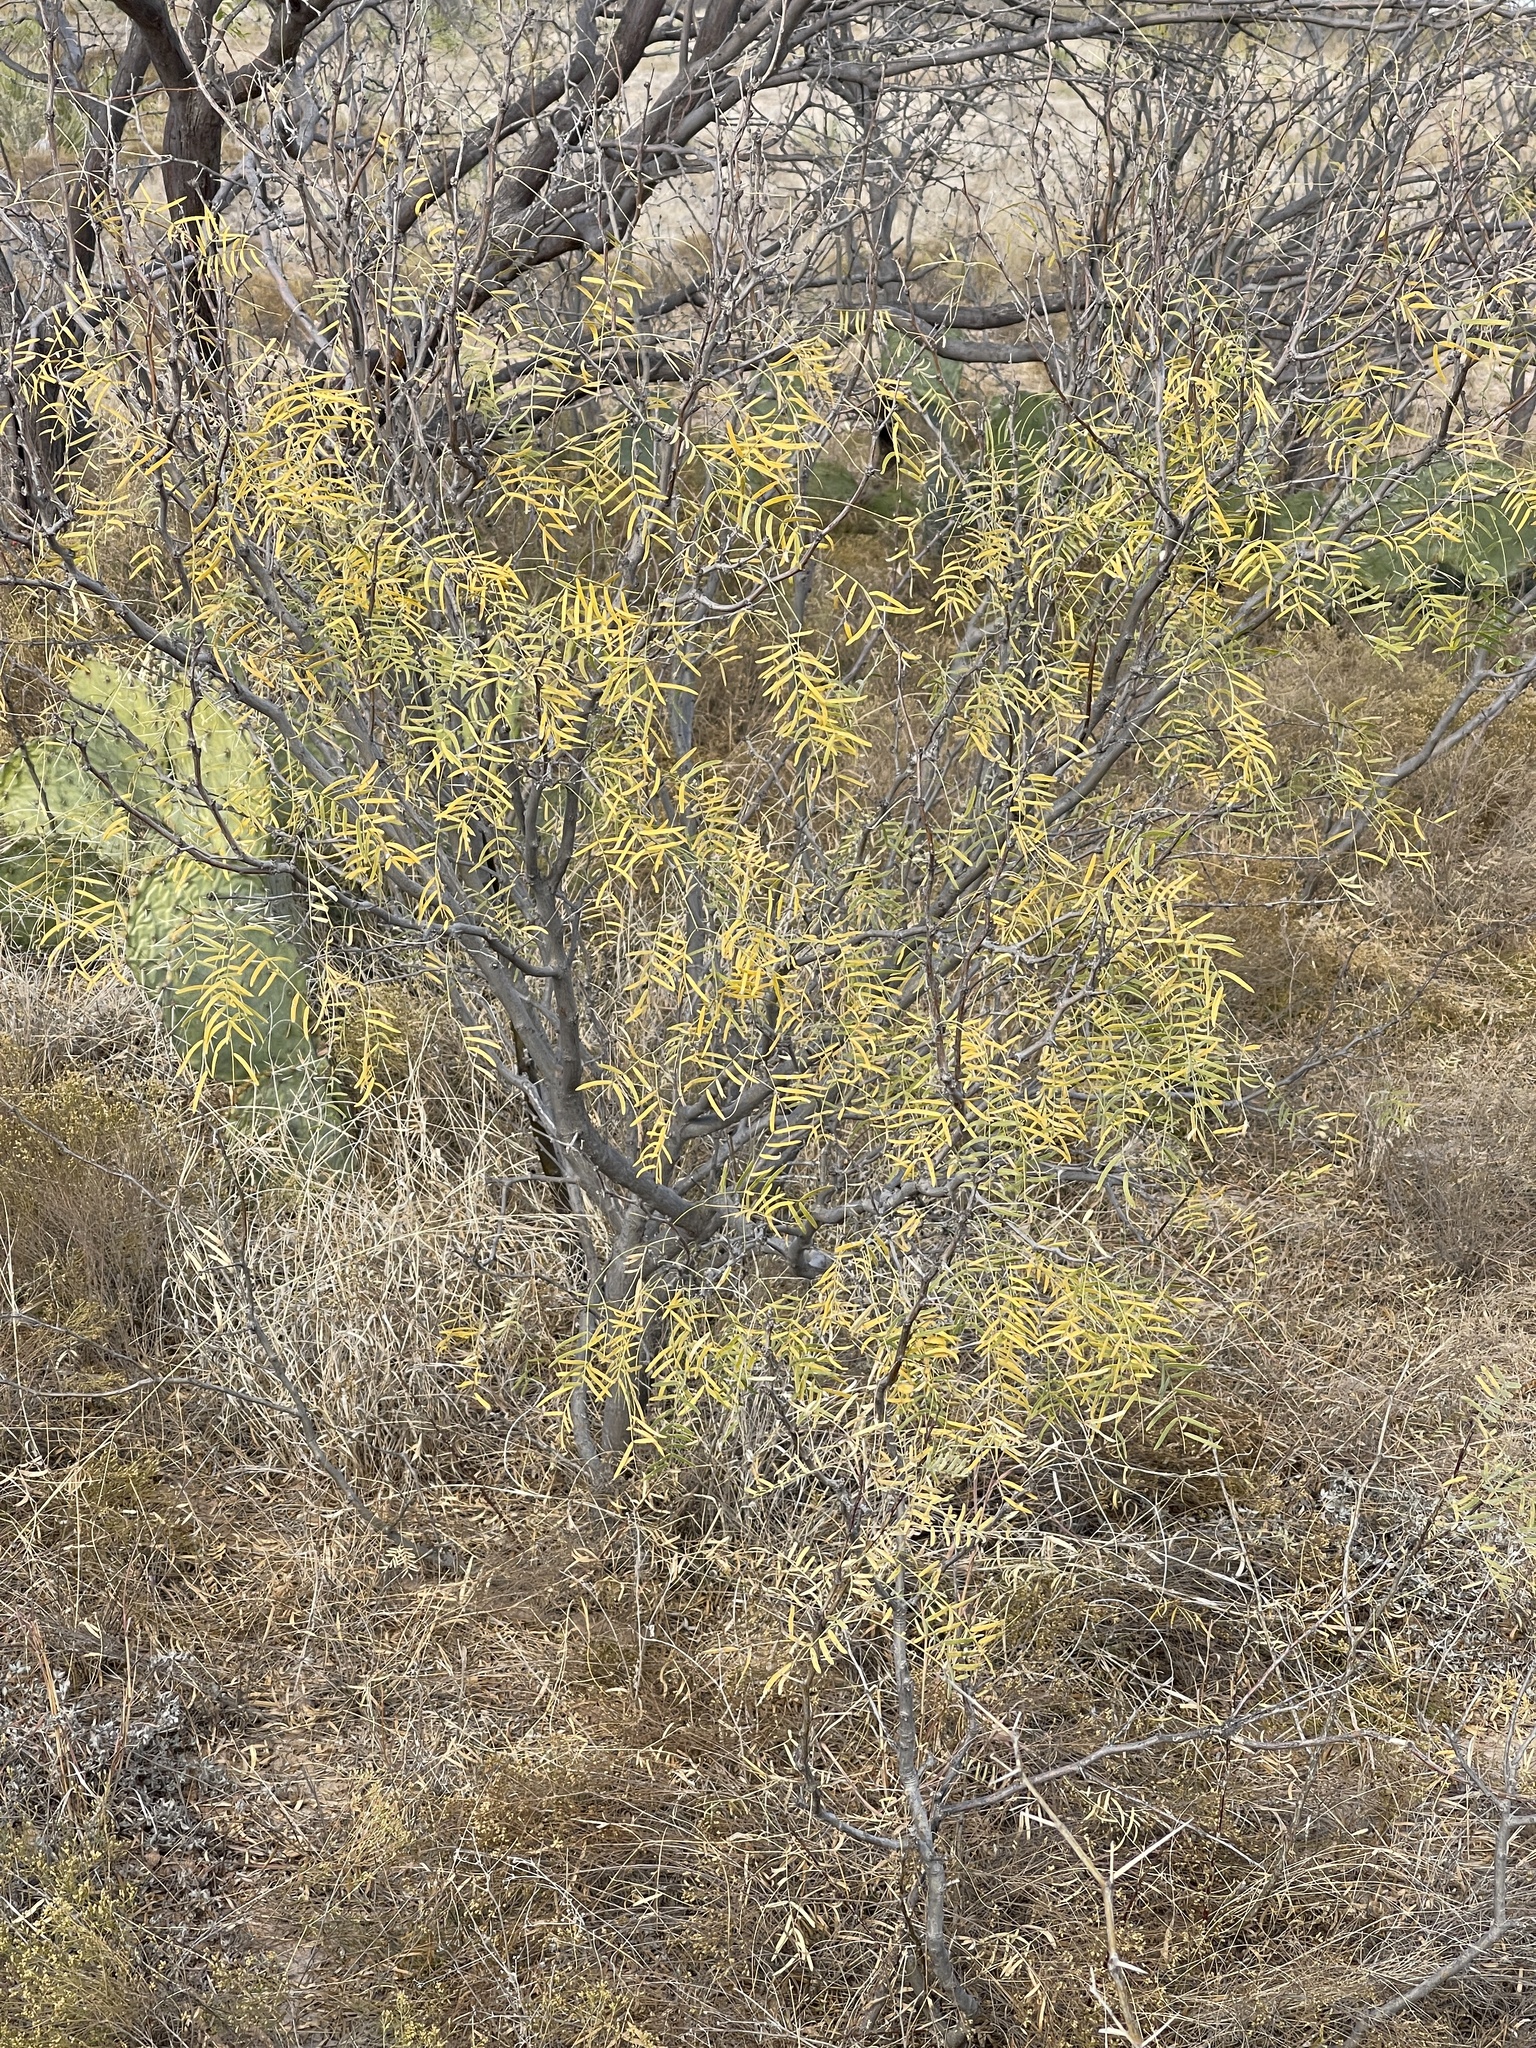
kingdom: Plantae
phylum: Tracheophyta
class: Magnoliopsida
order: Fabales
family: Fabaceae
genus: Prosopis
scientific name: Prosopis glandulosa
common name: Honey mesquite
